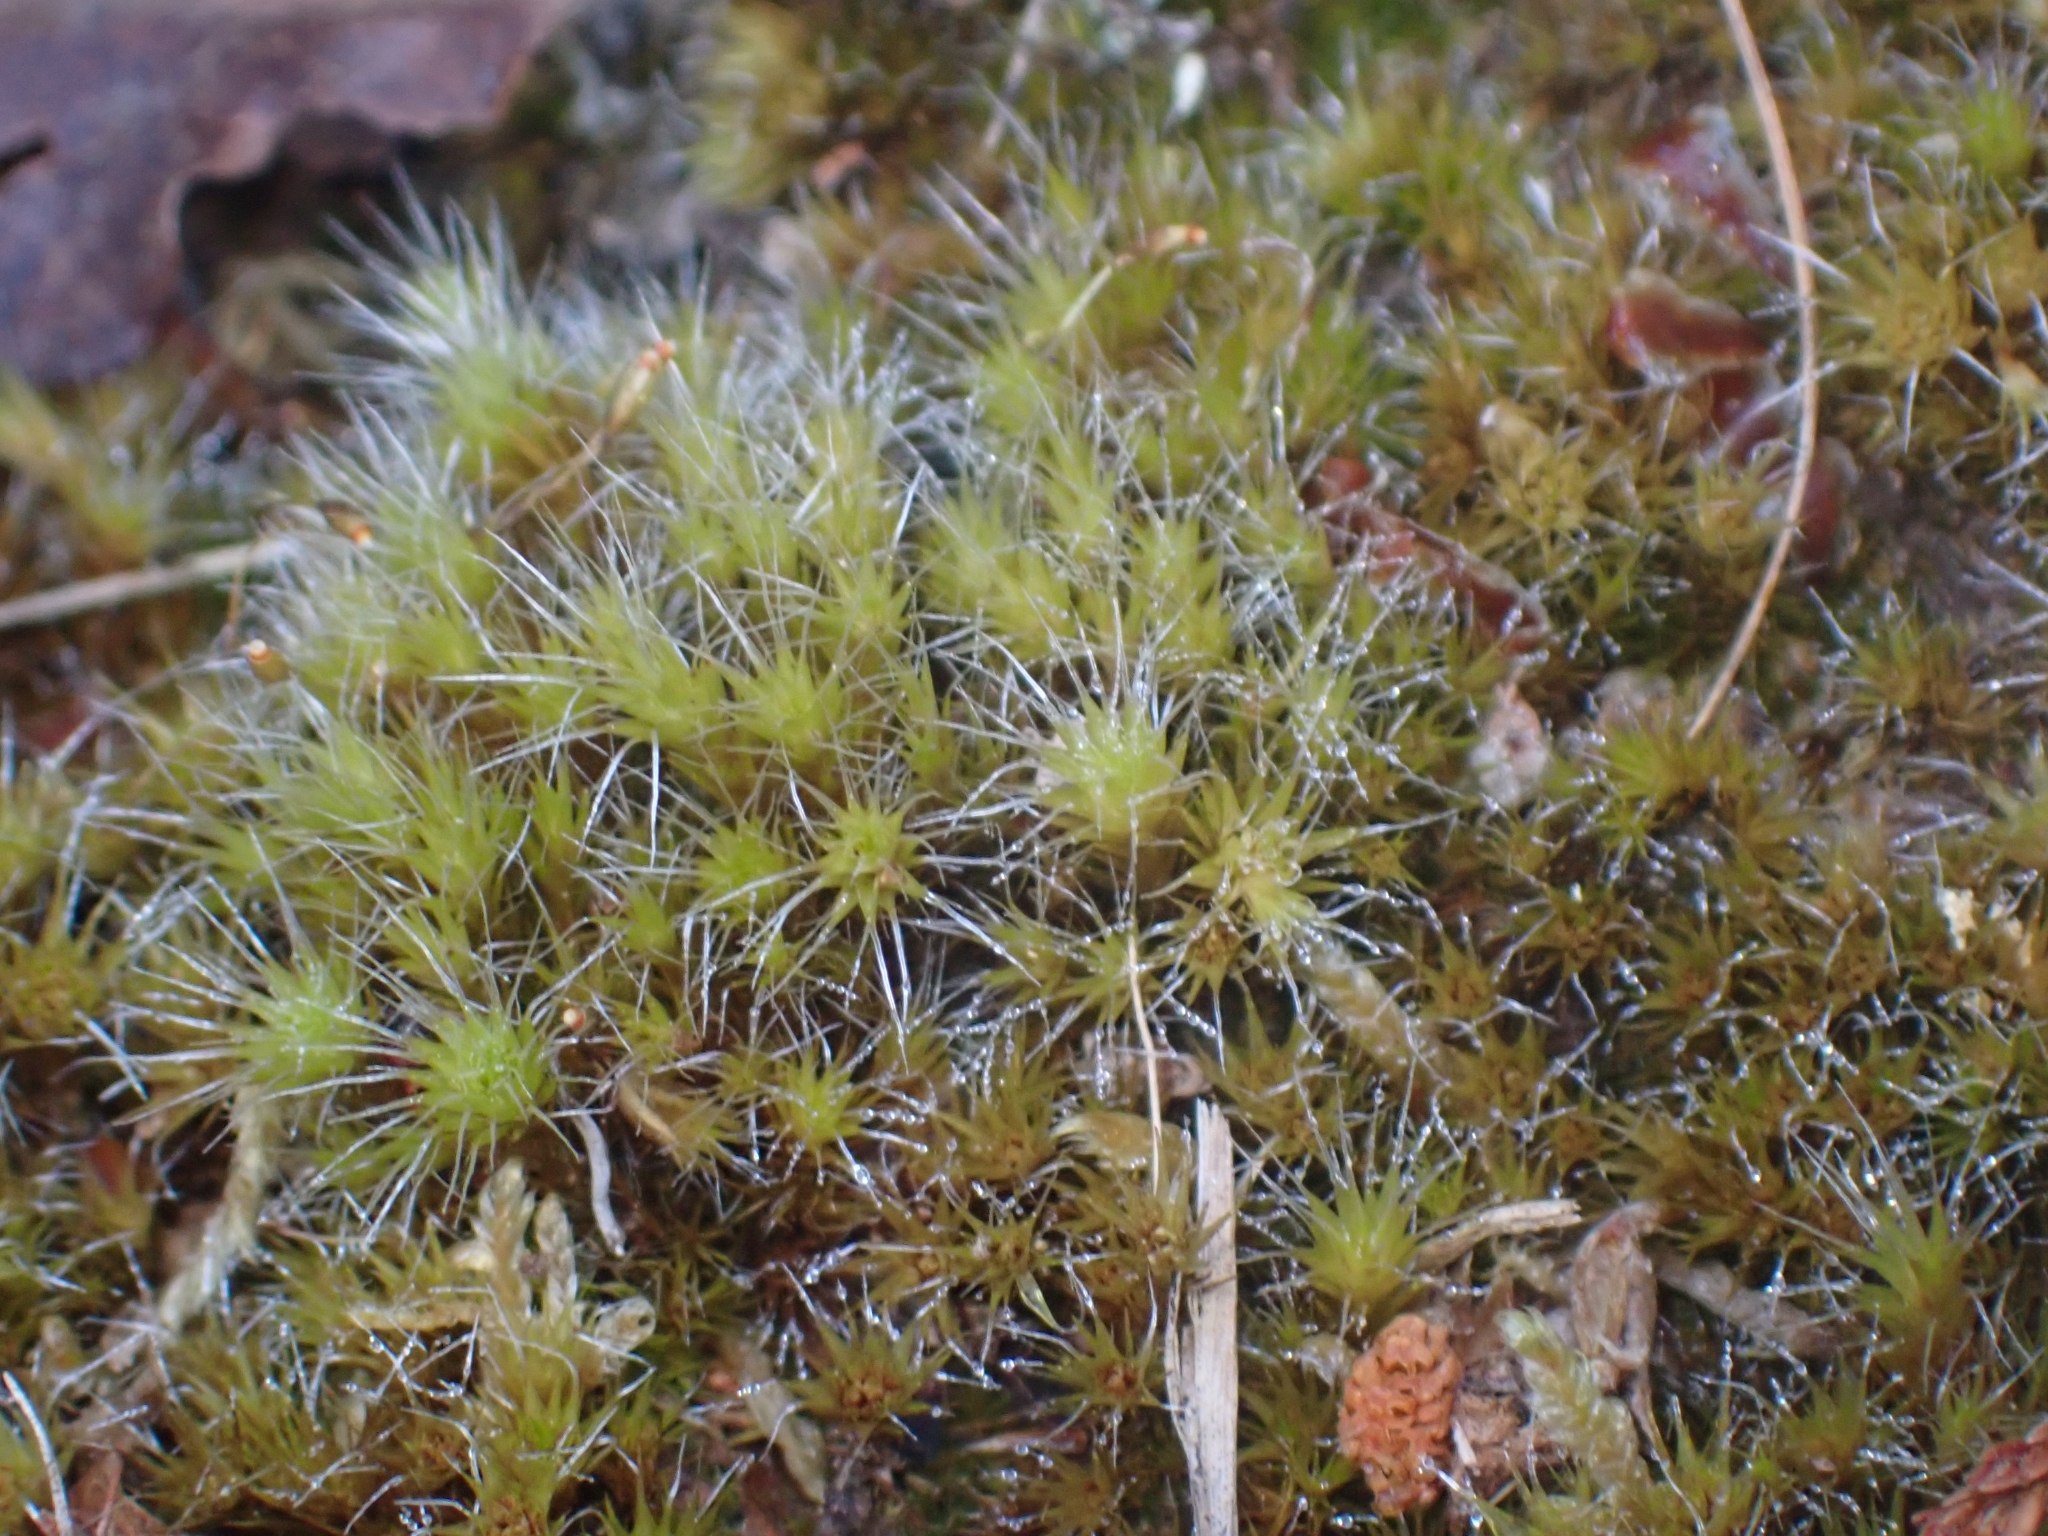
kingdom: Plantae
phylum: Bryophyta
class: Bryopsida
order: Dicranales
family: Leucobryaceae
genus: Campylopus
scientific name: Campylopus introflexus
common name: Heath star moss
